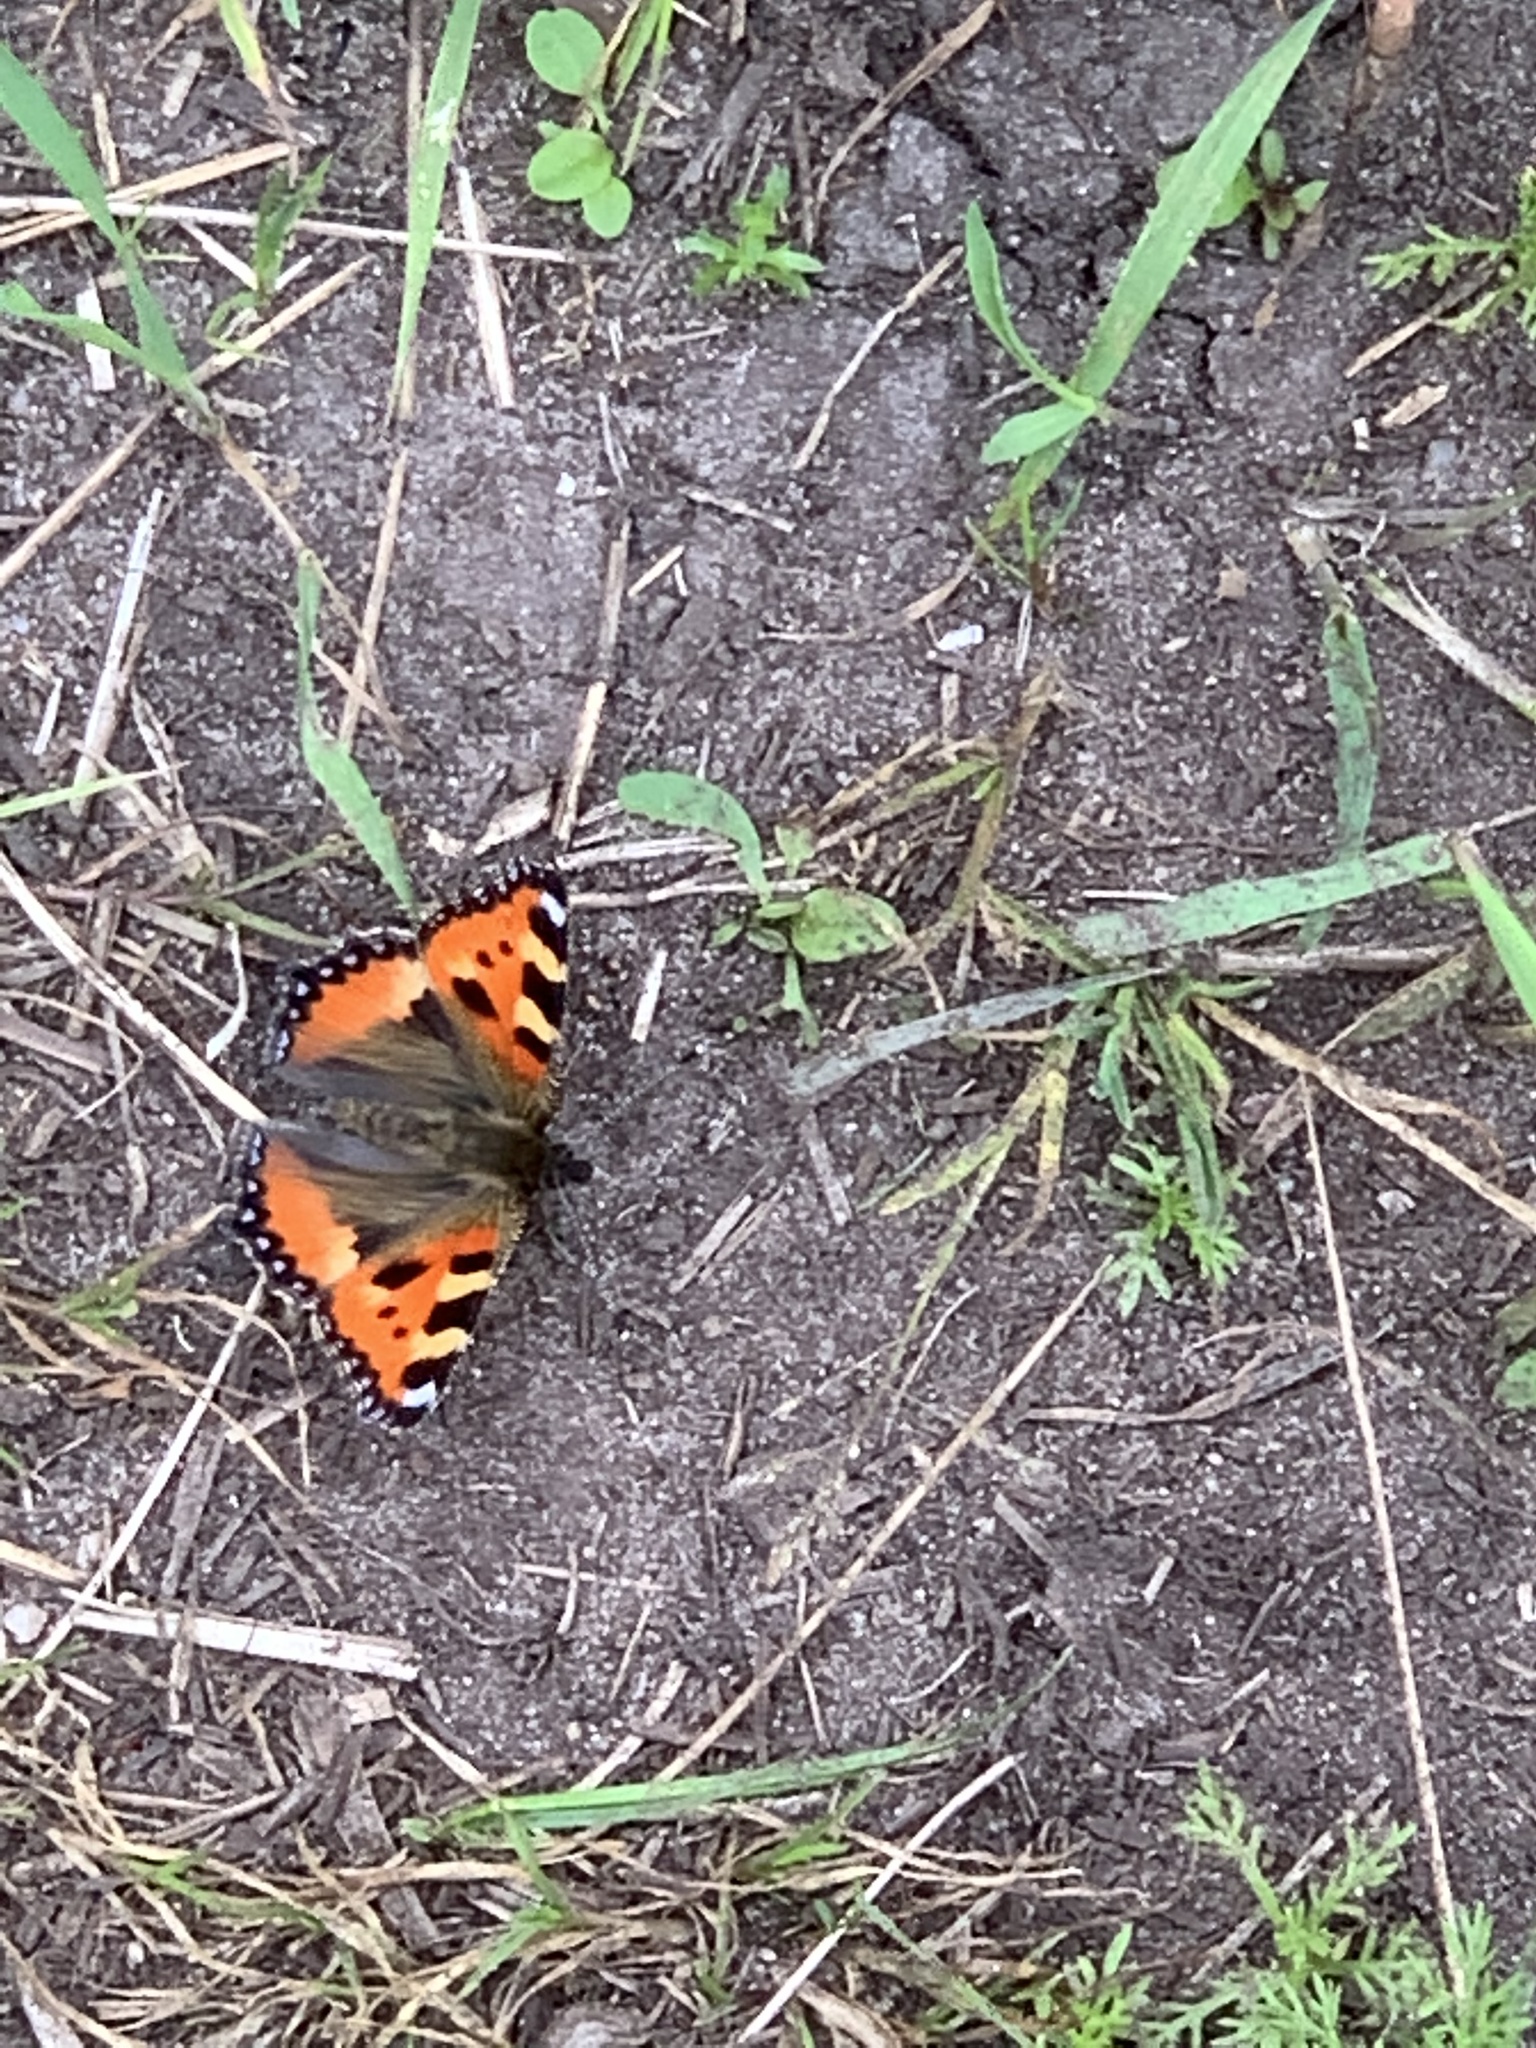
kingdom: Animalia
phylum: Arthropoda
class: Insecta
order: Lepidoptera
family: Nymphalidae
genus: Aglais
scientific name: Aglais urticae
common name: Small tortoiseshell
